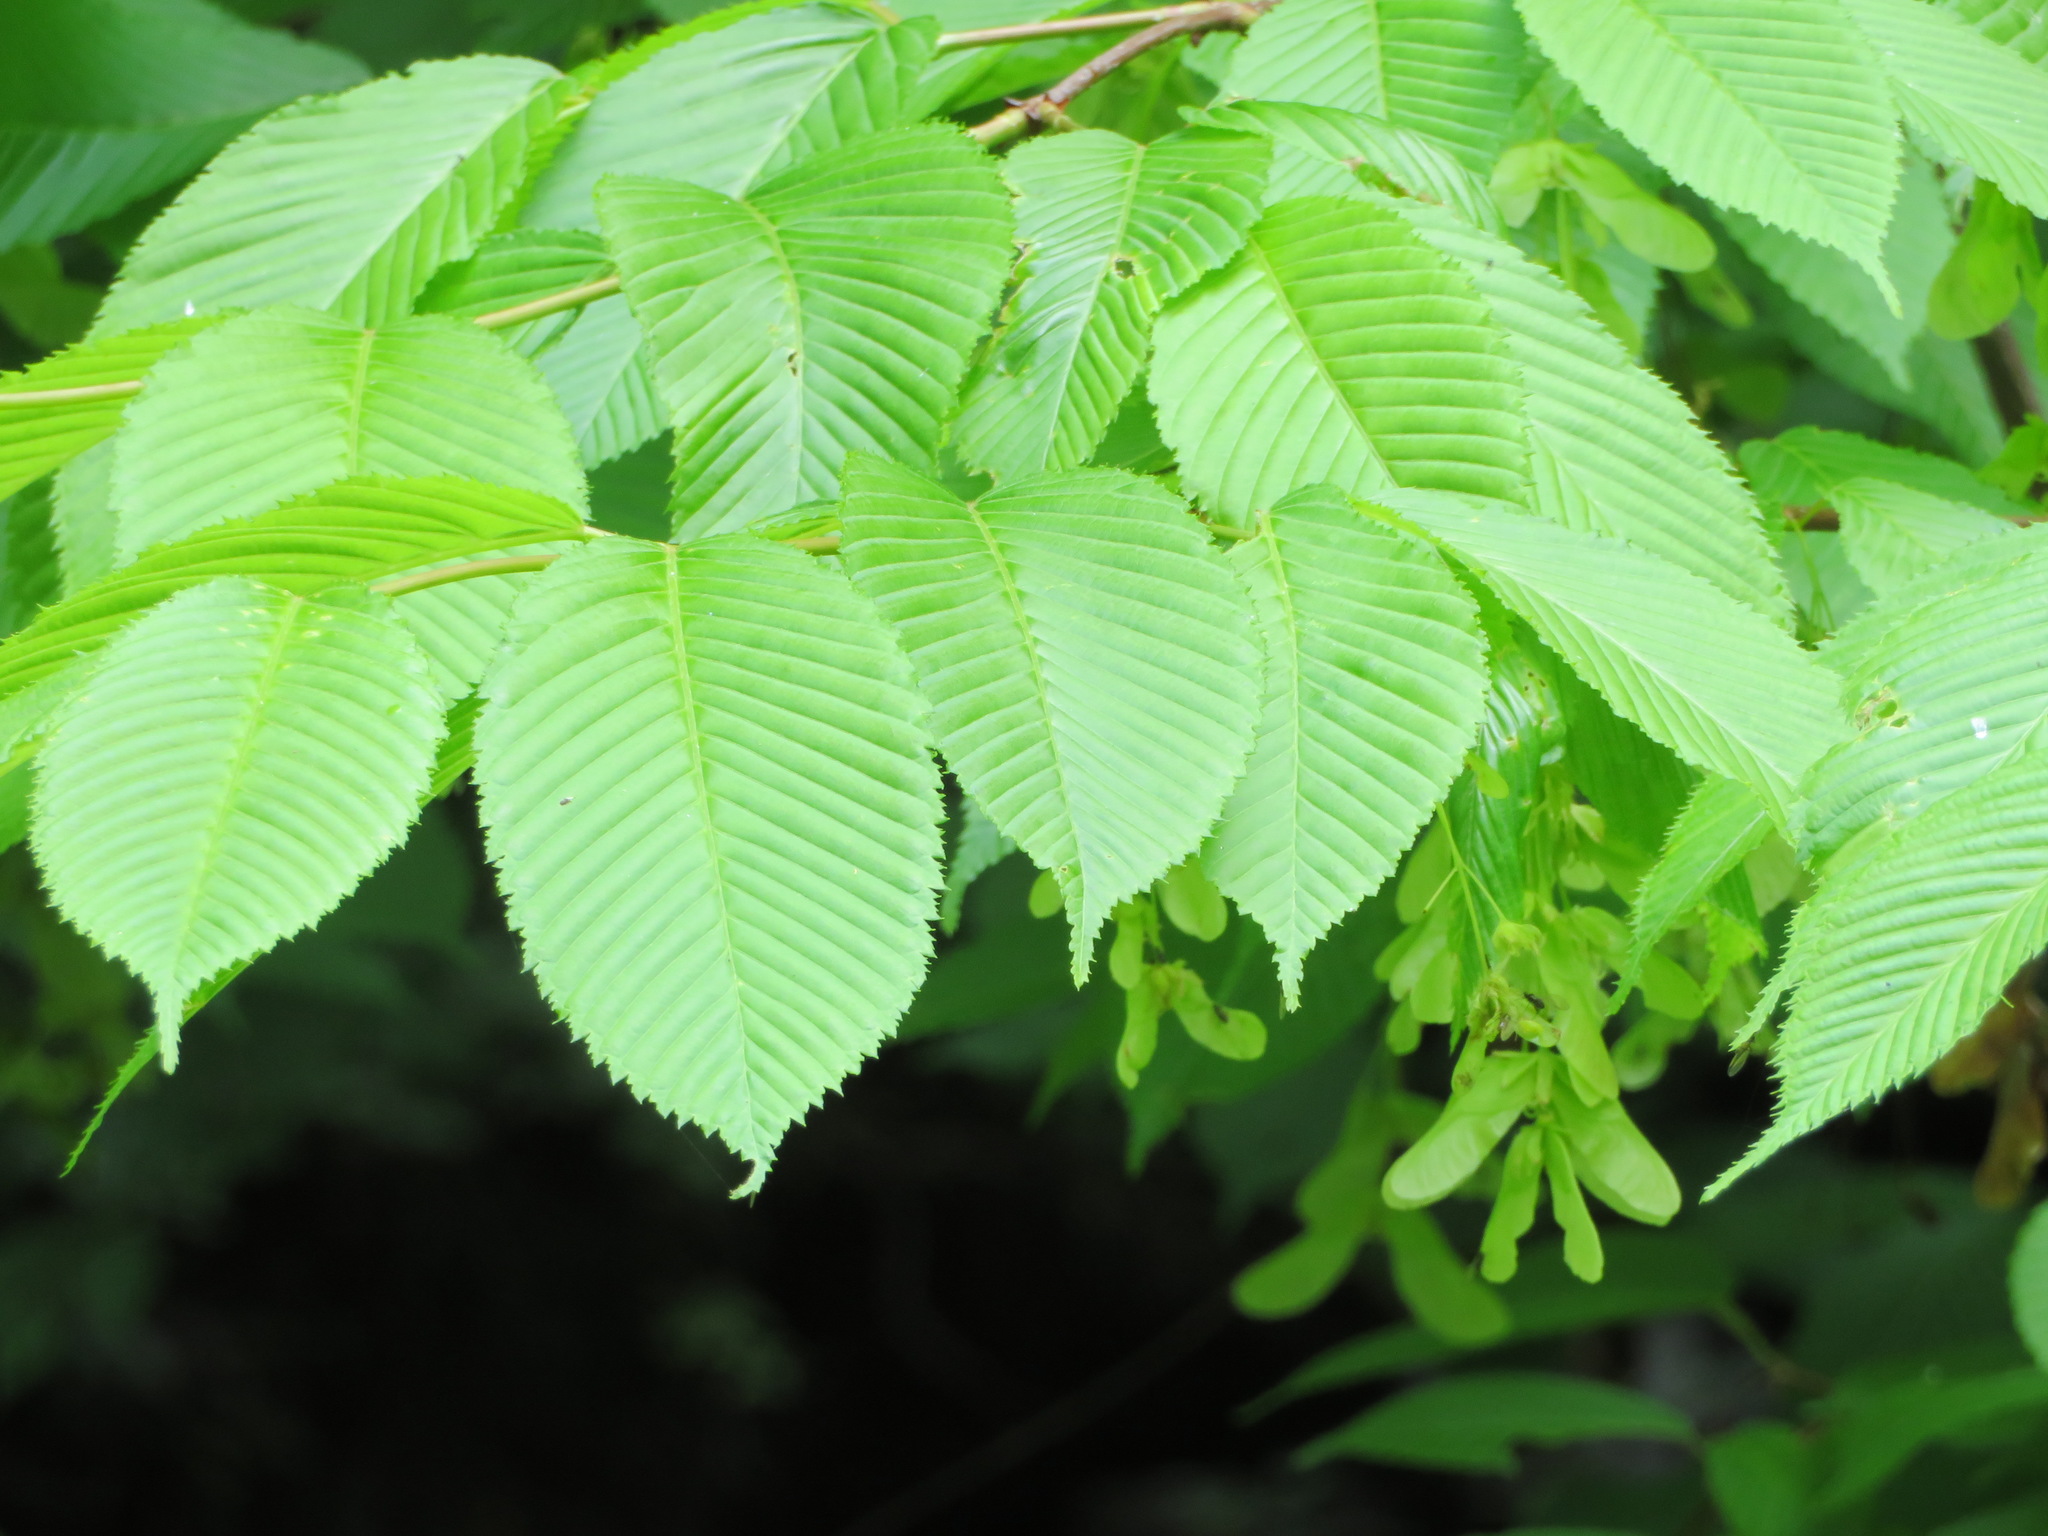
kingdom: Plantae
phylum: Tracheophyta
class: Magnoliopsida
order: Sapindales
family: Sapindaceae
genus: Acer
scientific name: Acer carpinifolium
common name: Hornbeam maple
